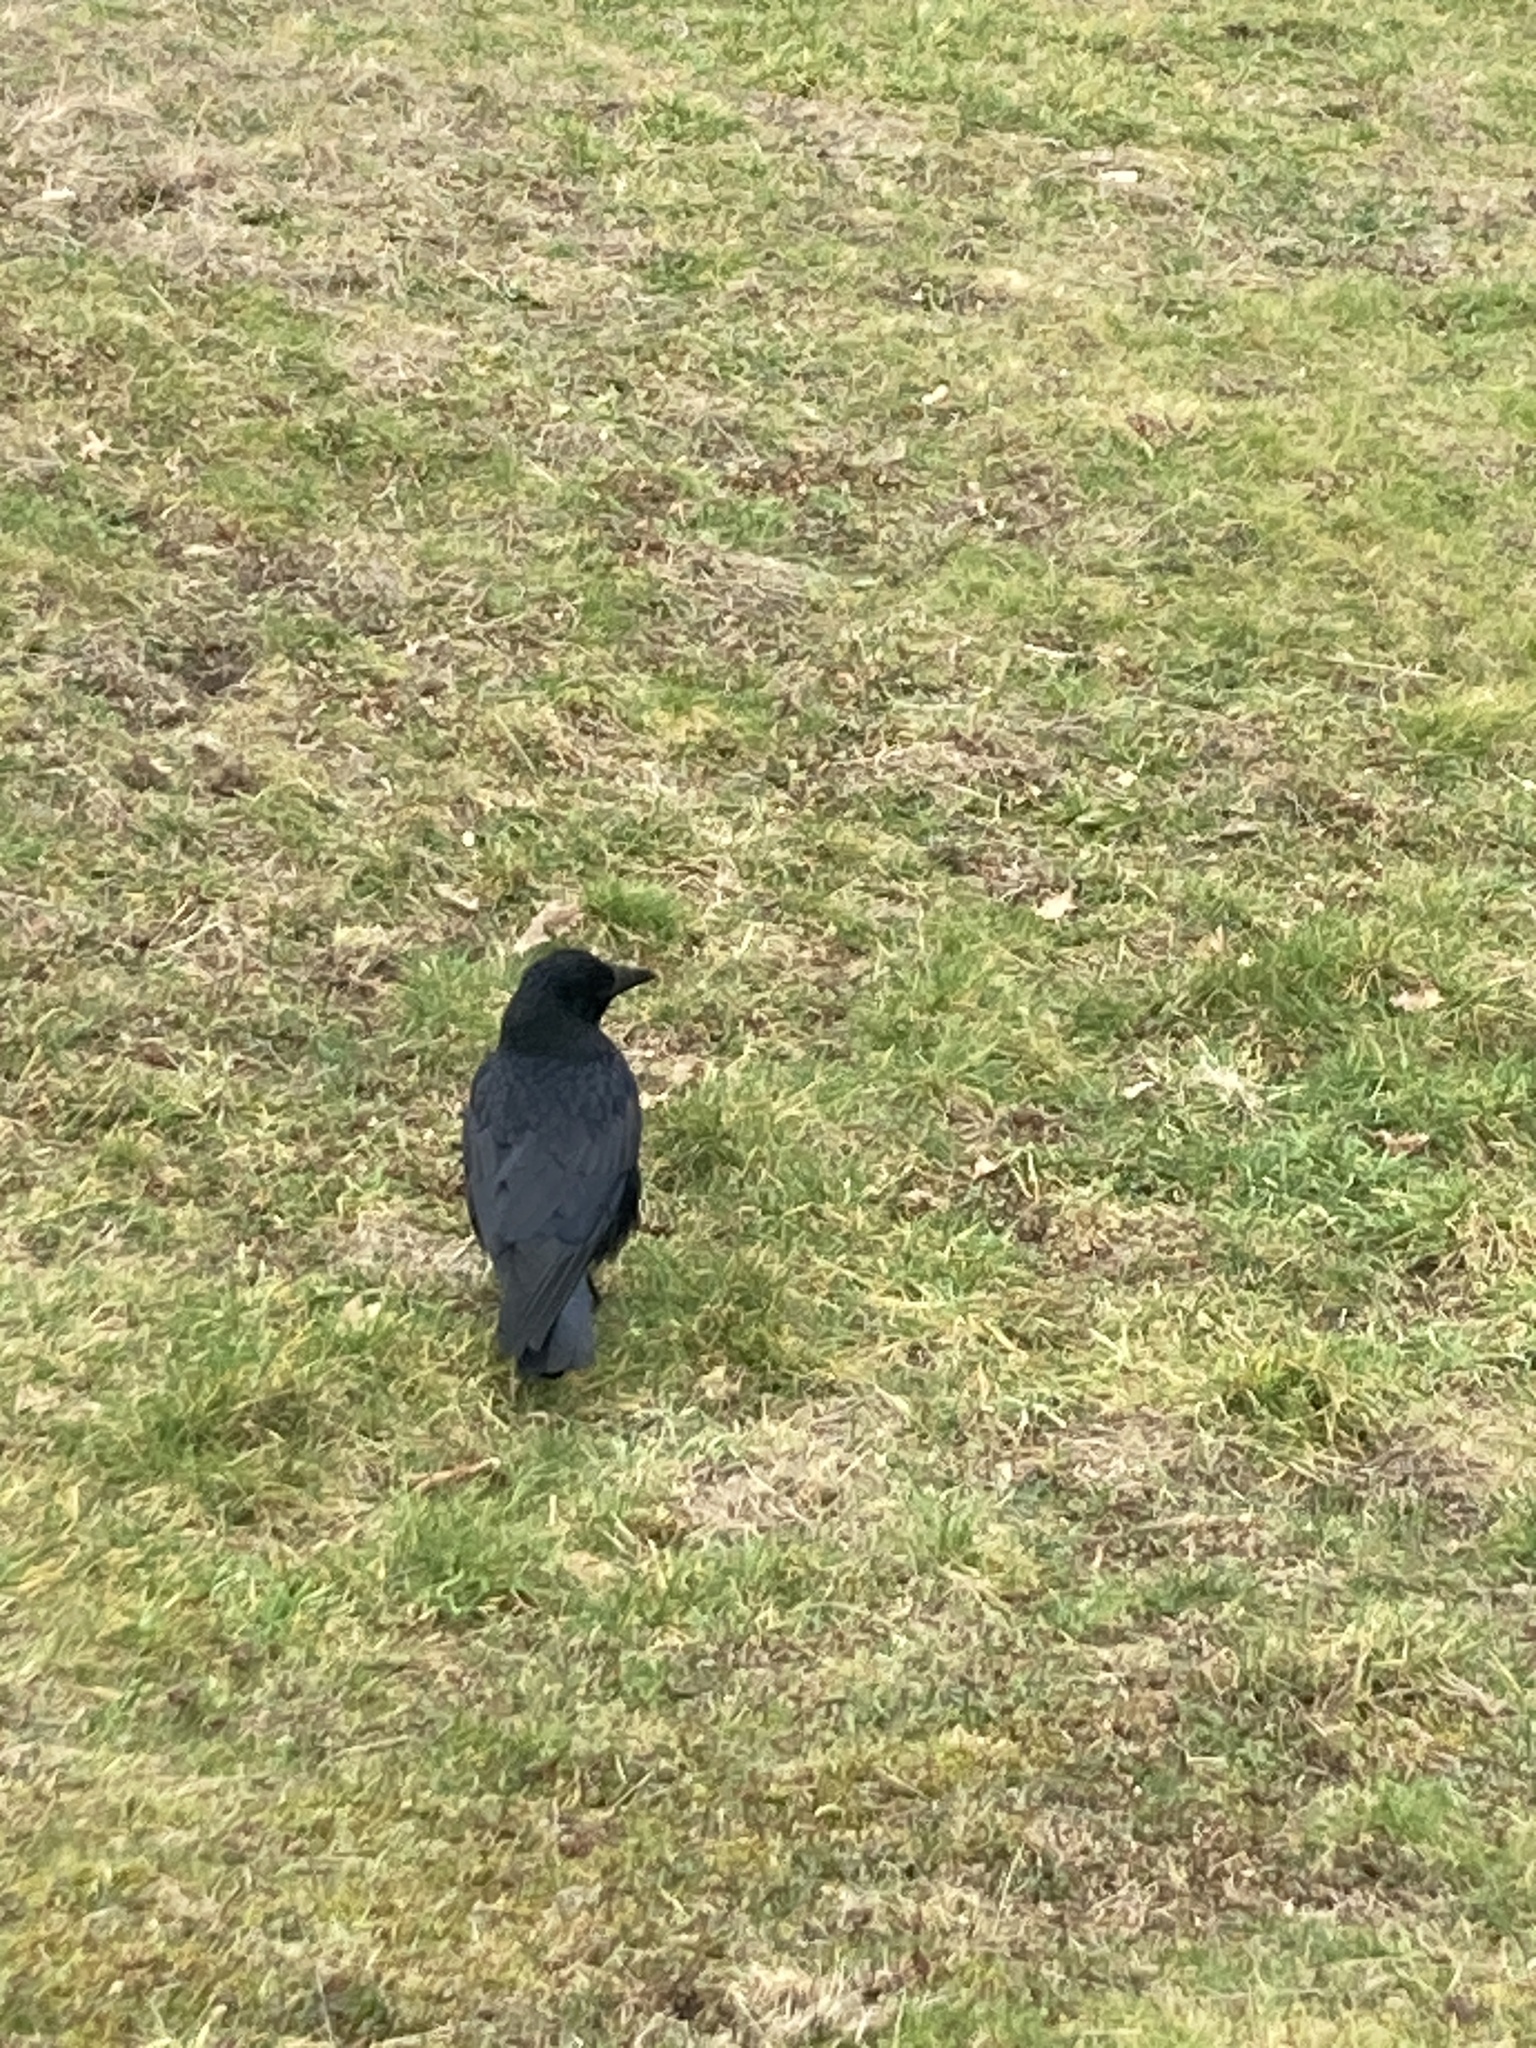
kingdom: Animalia
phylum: Chordata
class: Aves
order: Passeriformes
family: Corvidae
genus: Corvus
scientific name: Corvus corone
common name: Carrion crow
